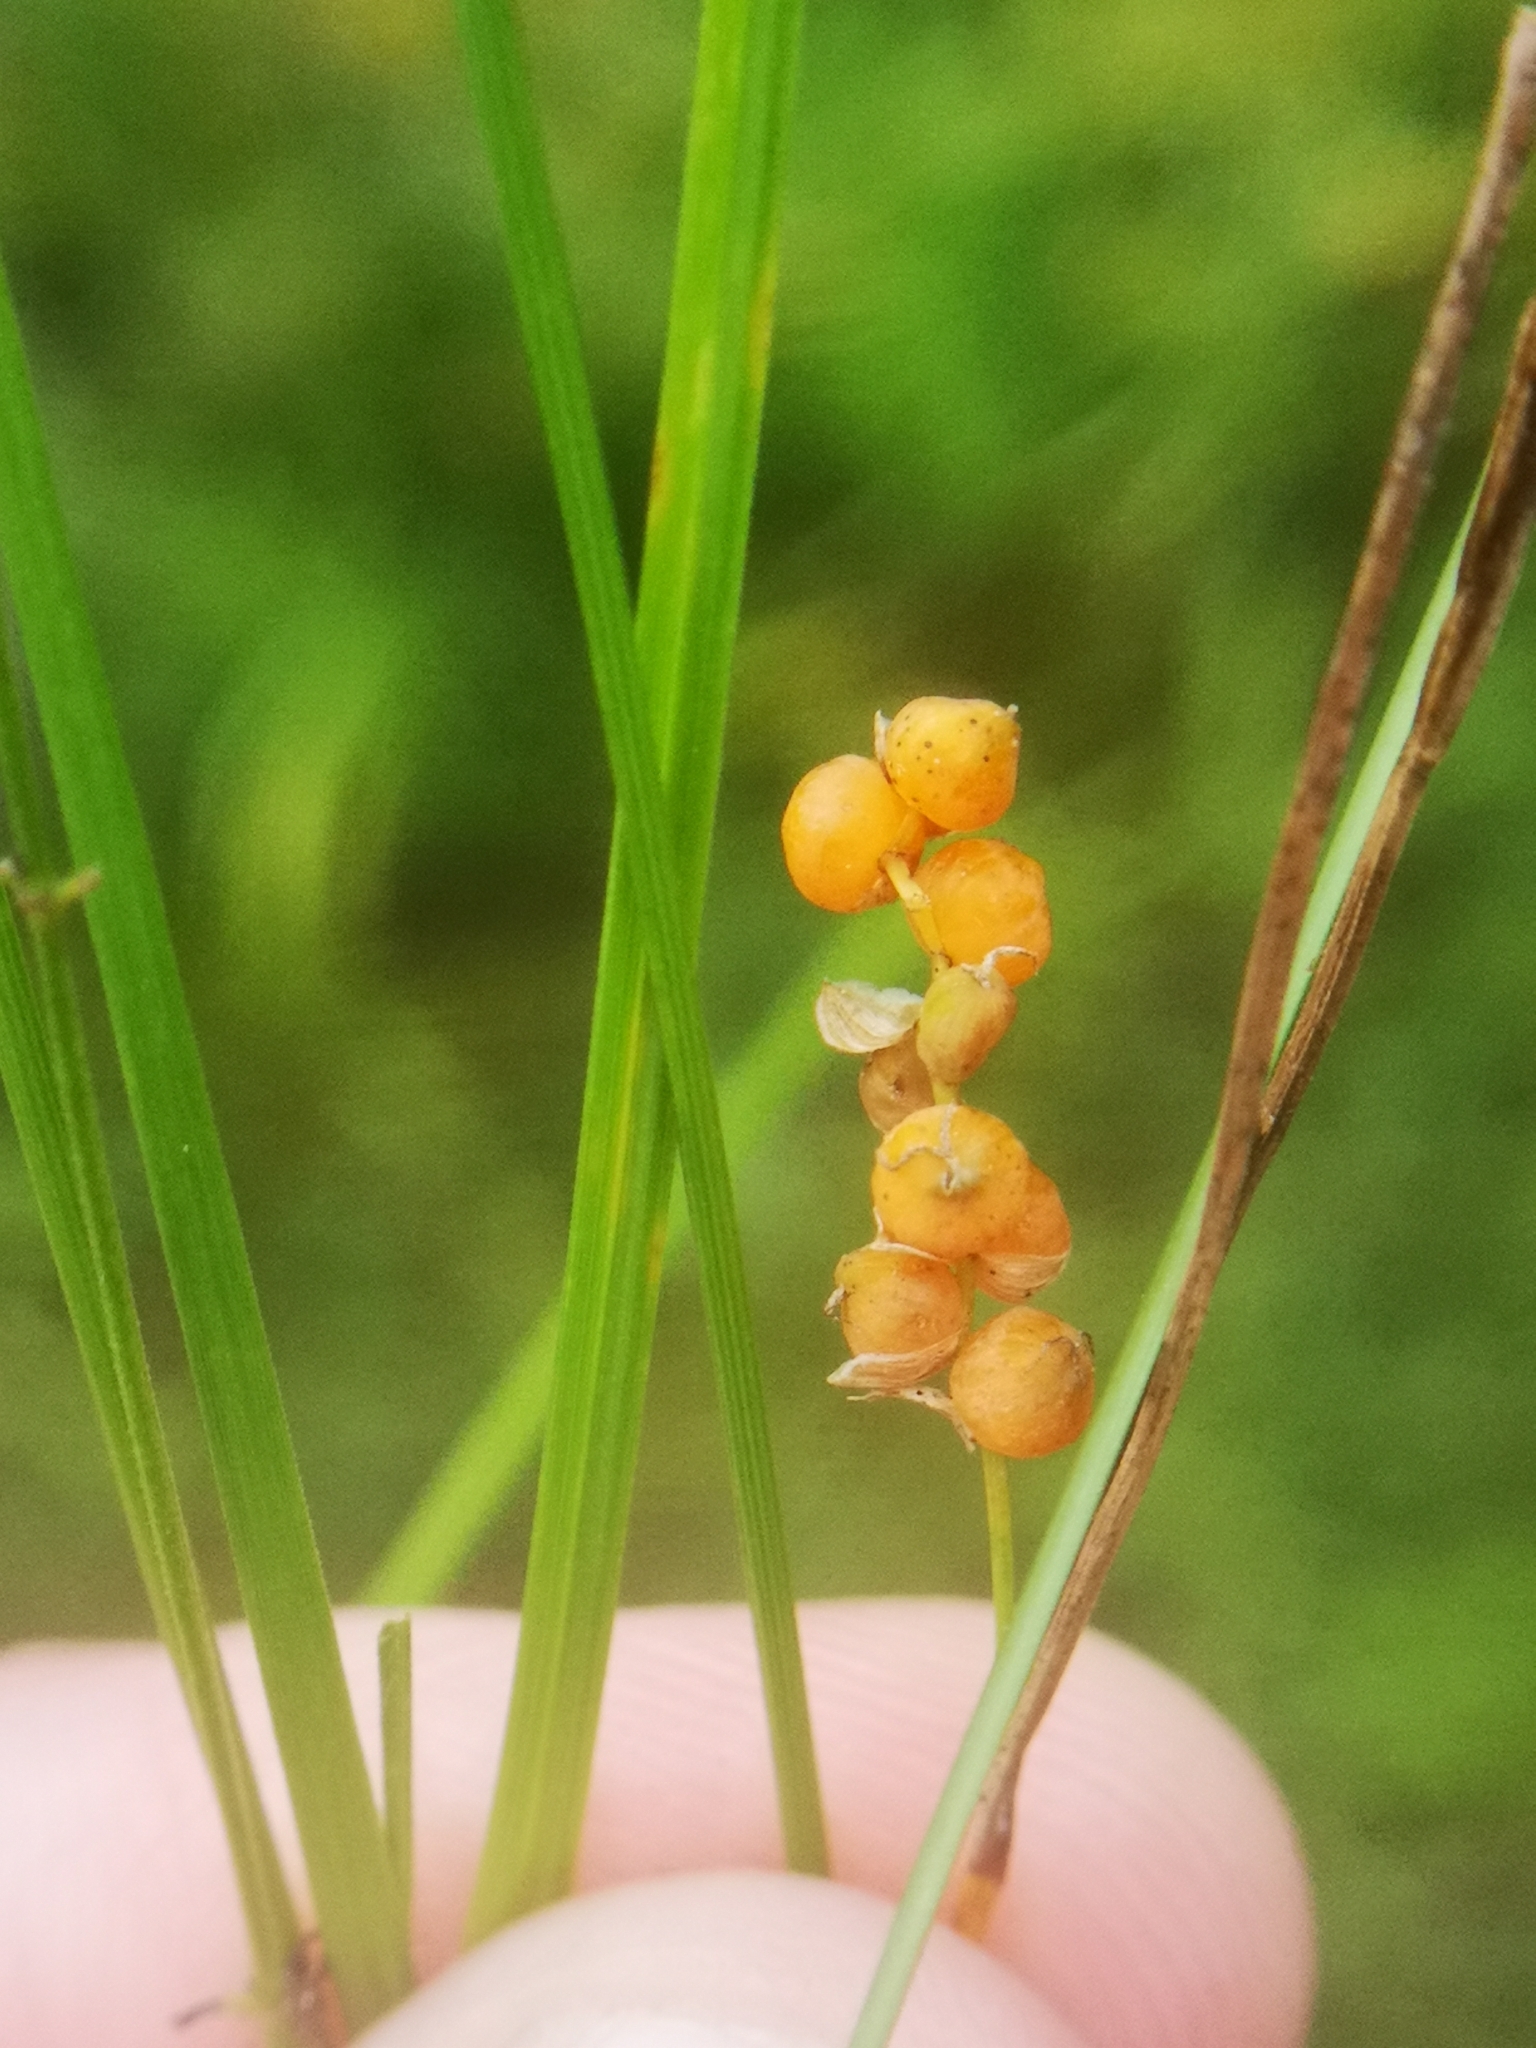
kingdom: Plantae
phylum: Tracheophyta
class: Liliopsida
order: Poales
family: Cyperaceae
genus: Carex
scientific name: Carex aurea
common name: Golden sedge
